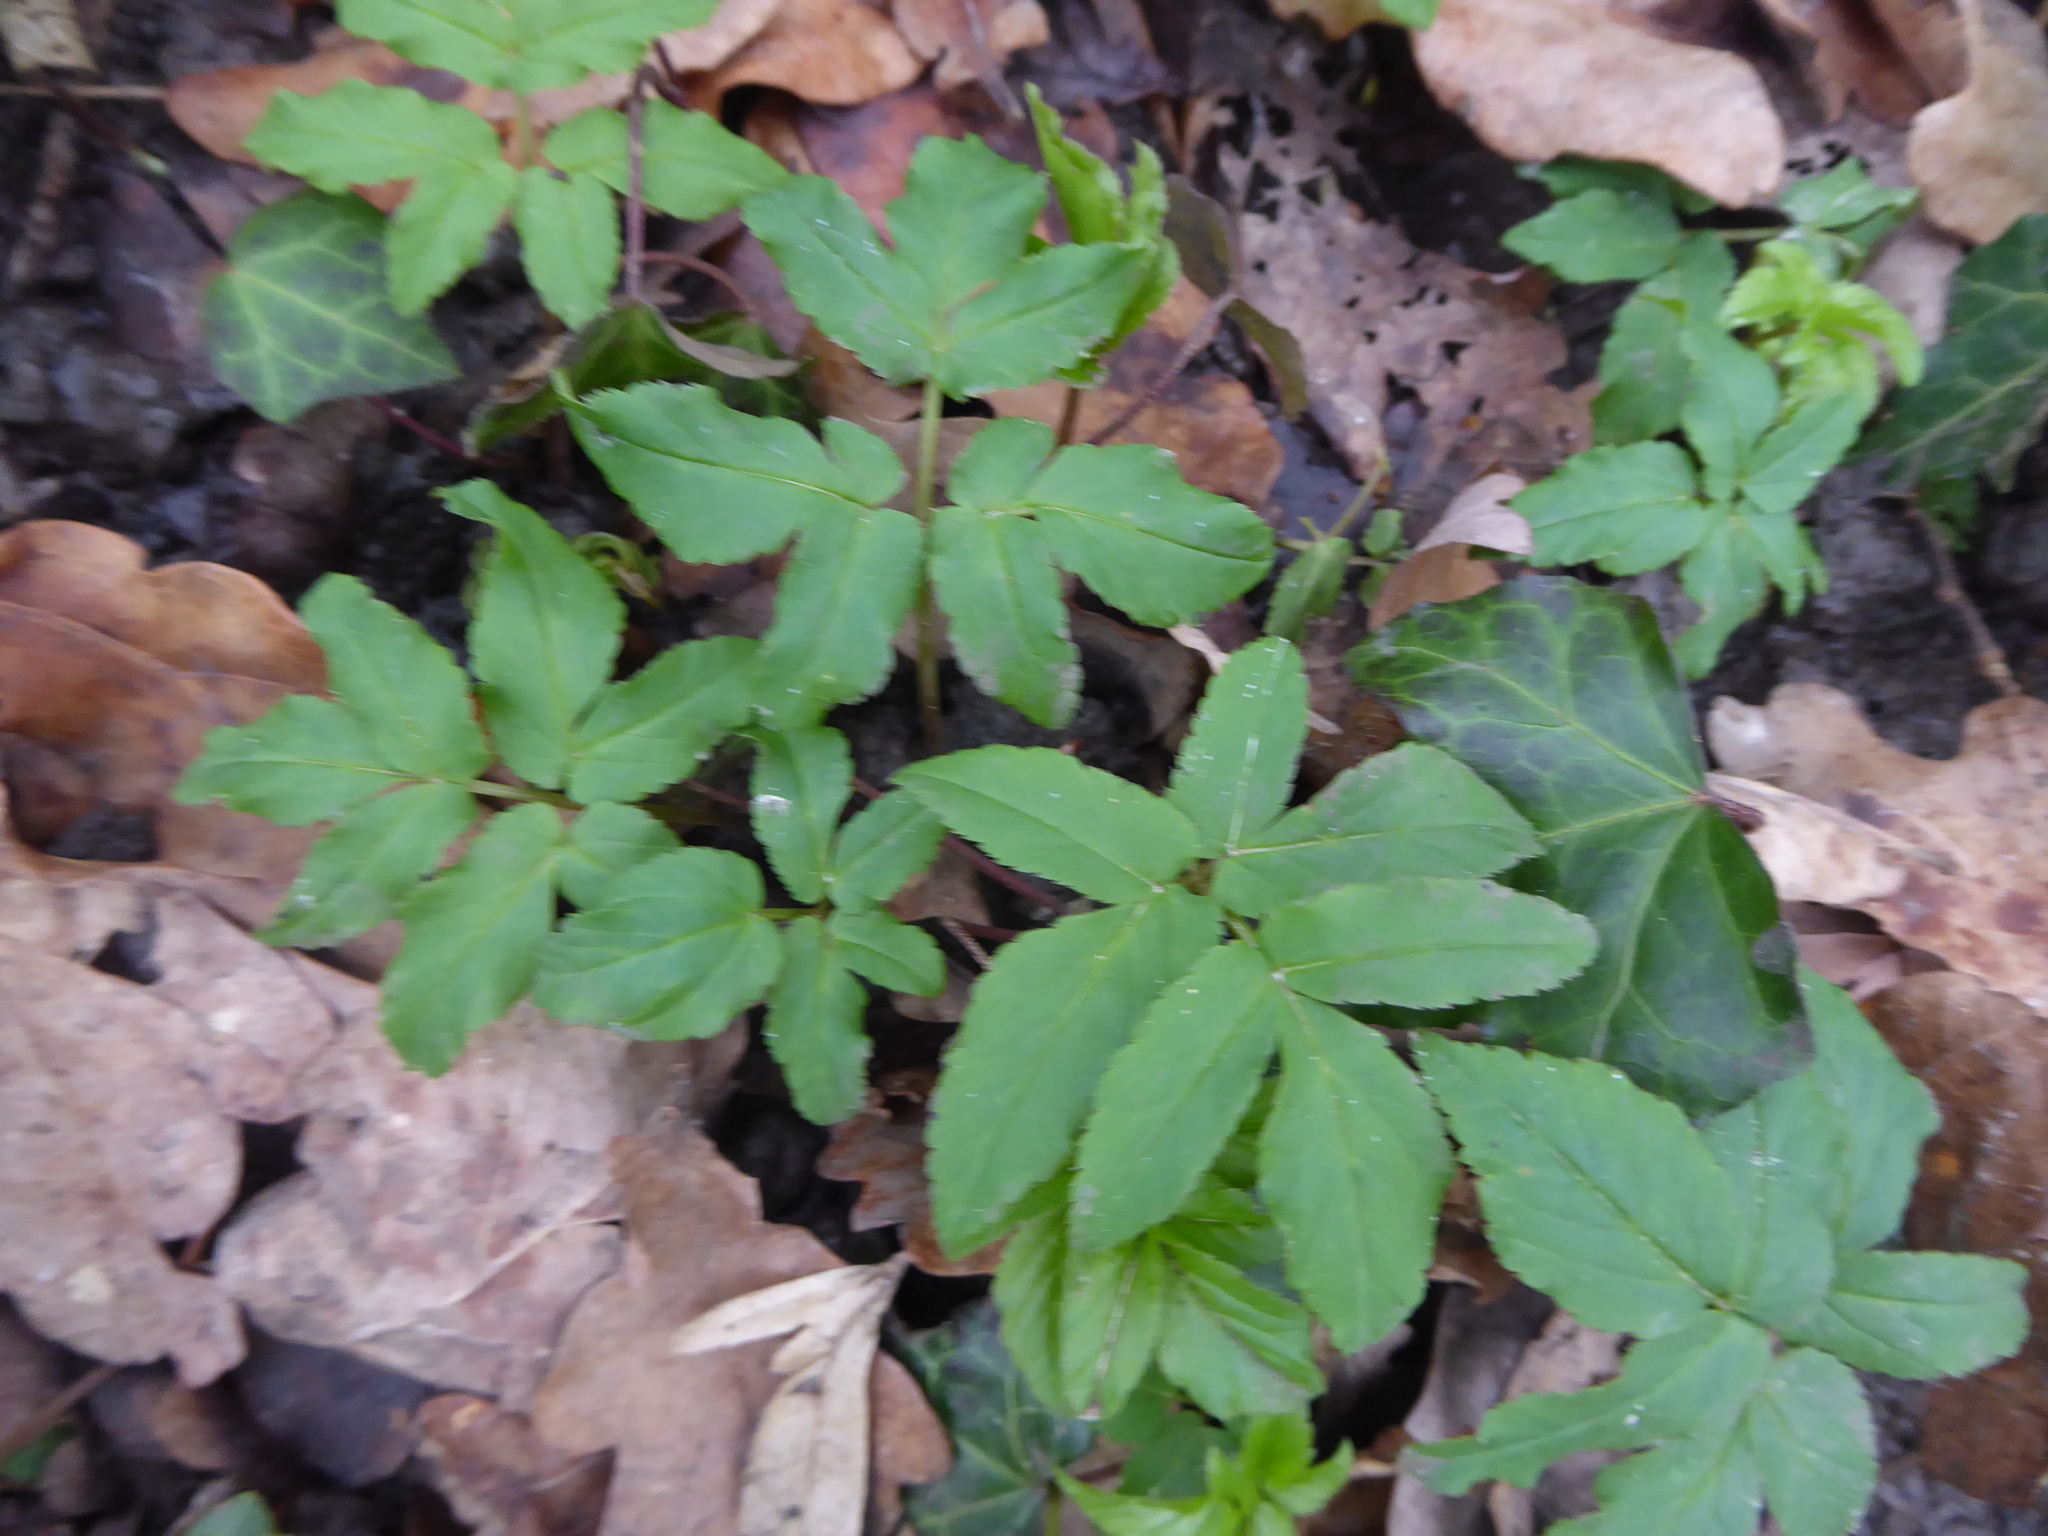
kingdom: Plantae
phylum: Tracheophyta
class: Magnoliopsida
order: Apiales
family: Apiaceae
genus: Aegopodium
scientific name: Aegopodium podagraria
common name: Ground-elder
